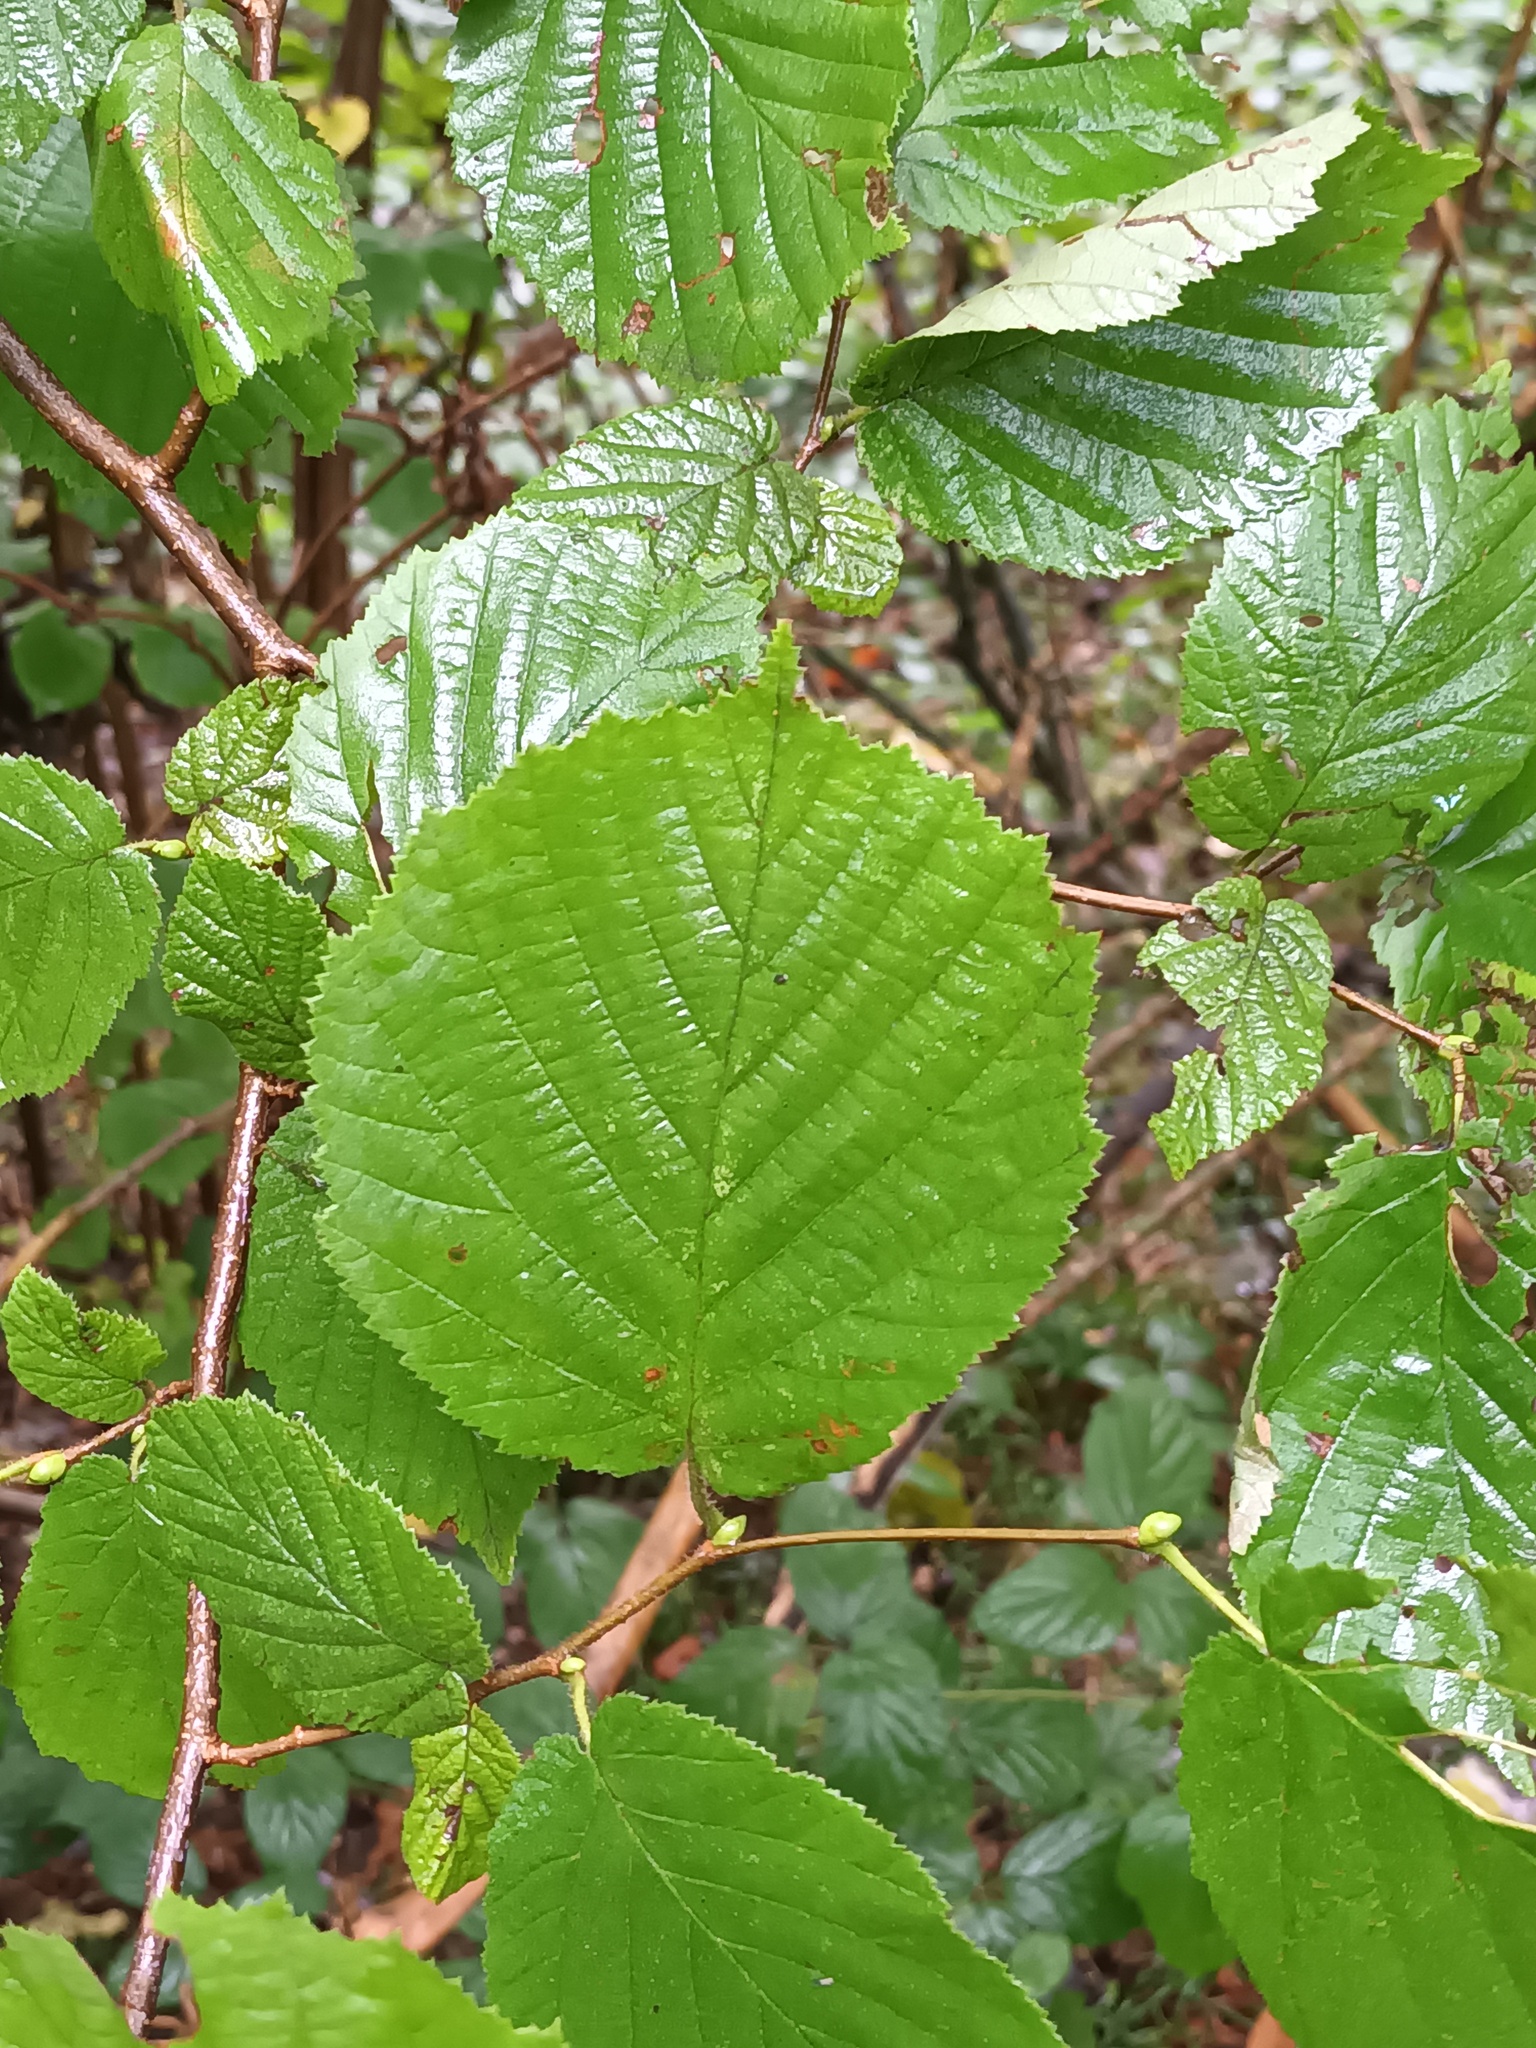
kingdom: Plantae
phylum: Tracheophyta
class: Magnoliopsida
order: Fagales
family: Betulaceae
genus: Corylus
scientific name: Corylus avellana
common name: European hazel
